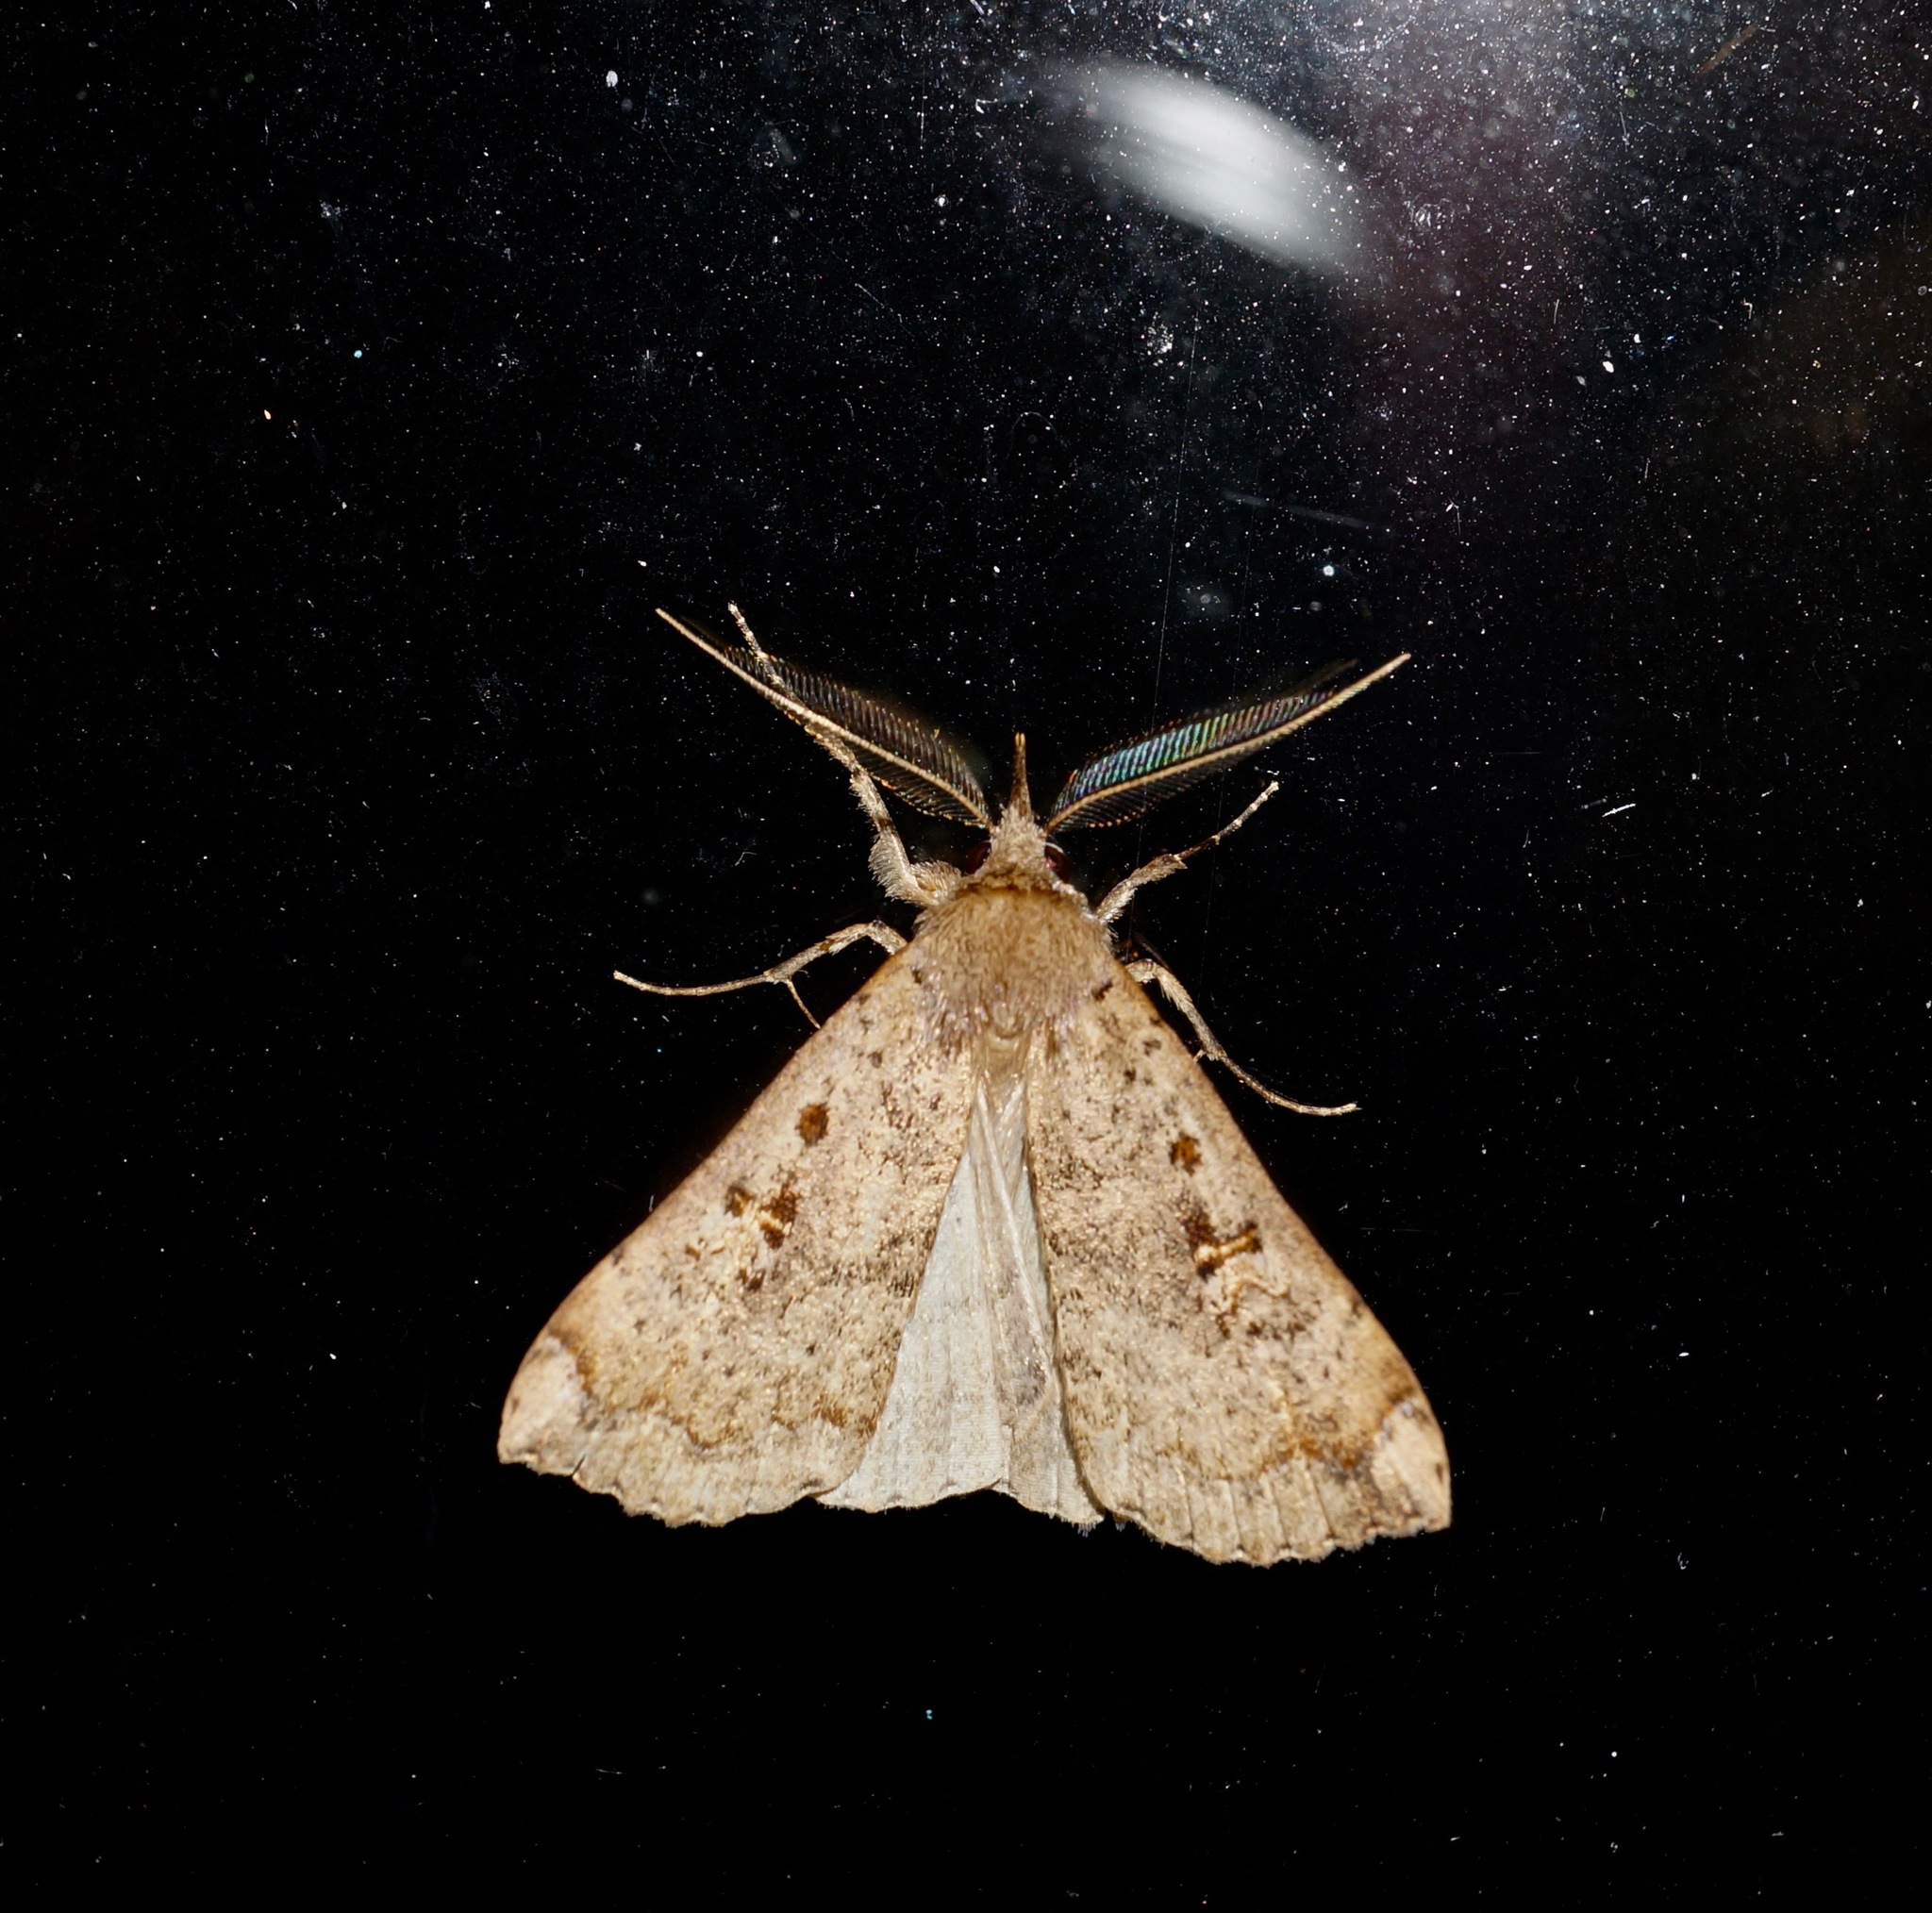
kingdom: Animalia
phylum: Arthropoda
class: Insecta
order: Lepidoptera
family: Erebidae
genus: Rhapsa
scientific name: Rhapsa scotosialis
